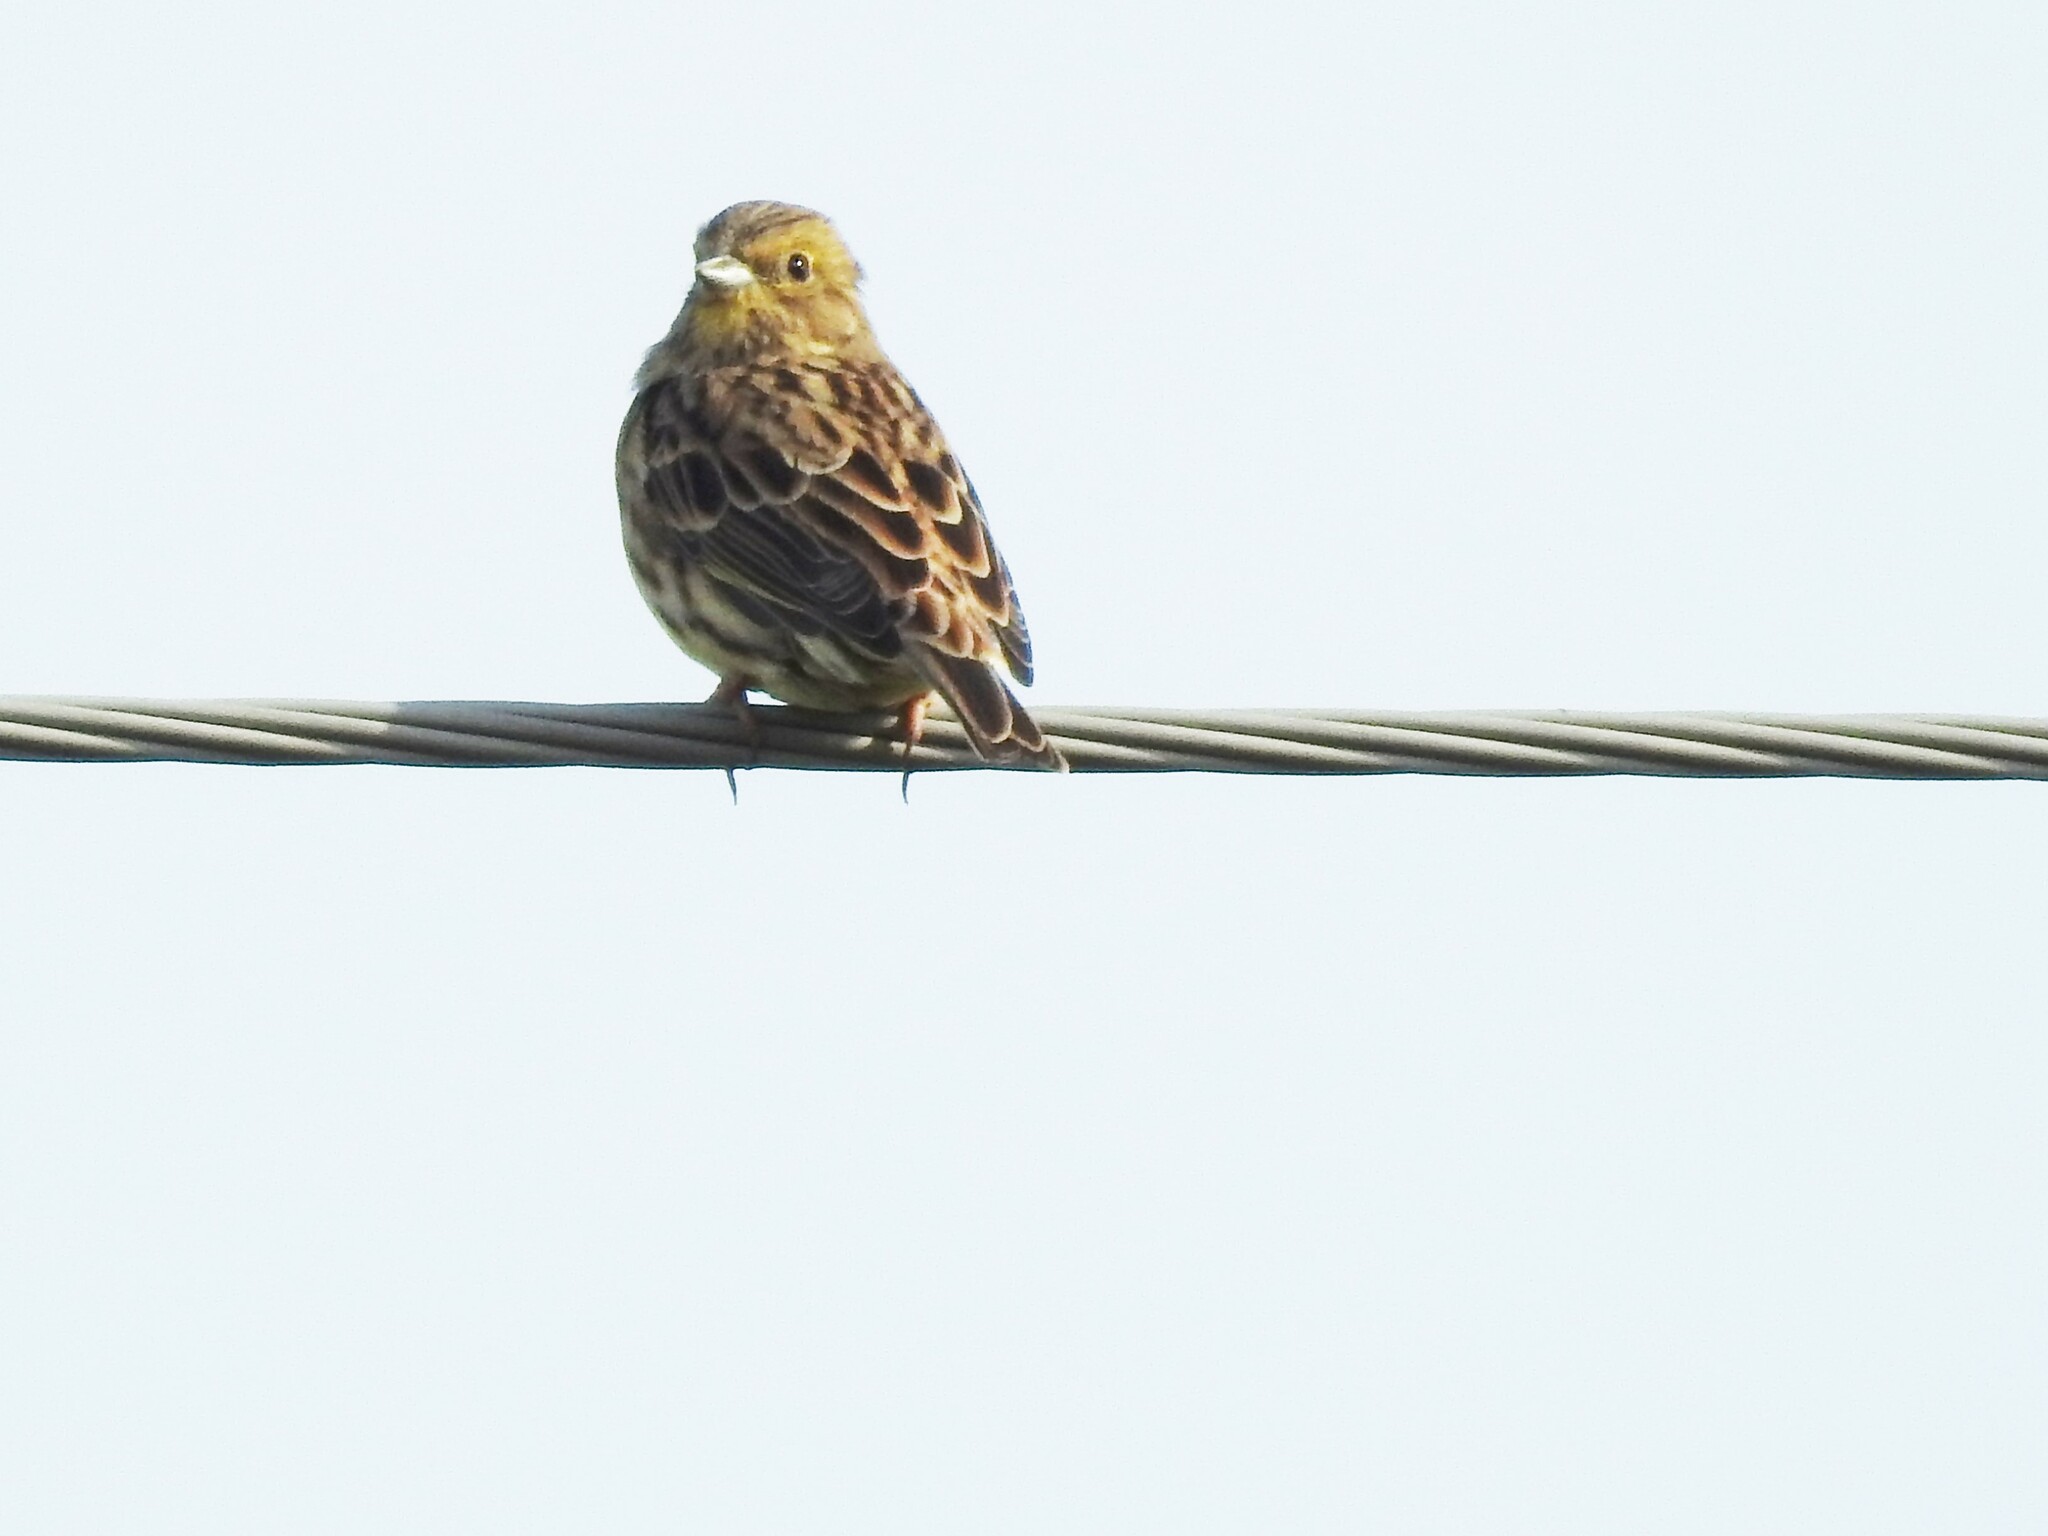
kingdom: Animalia
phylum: Chordata
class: Aves
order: Passeriformes
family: Emberizidae
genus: Emberiza
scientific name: Emberiza citrinella
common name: Yellowhammer
